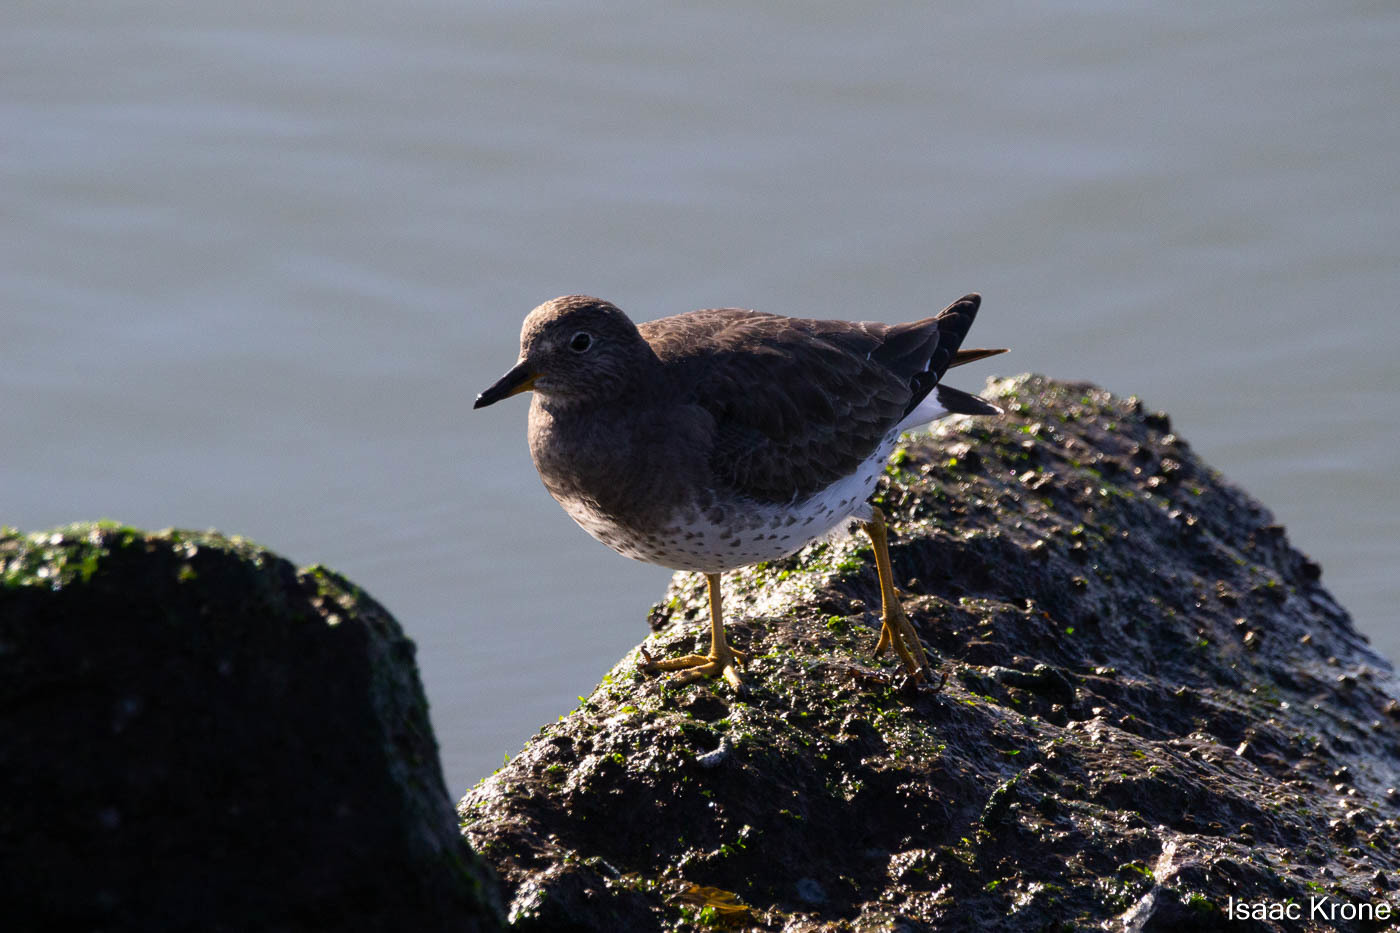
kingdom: Animalia
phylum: Chordata
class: Aves
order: Charadriiformes
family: Scolopacidae
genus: Calidris
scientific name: Calidris virgata
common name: Surfbird
